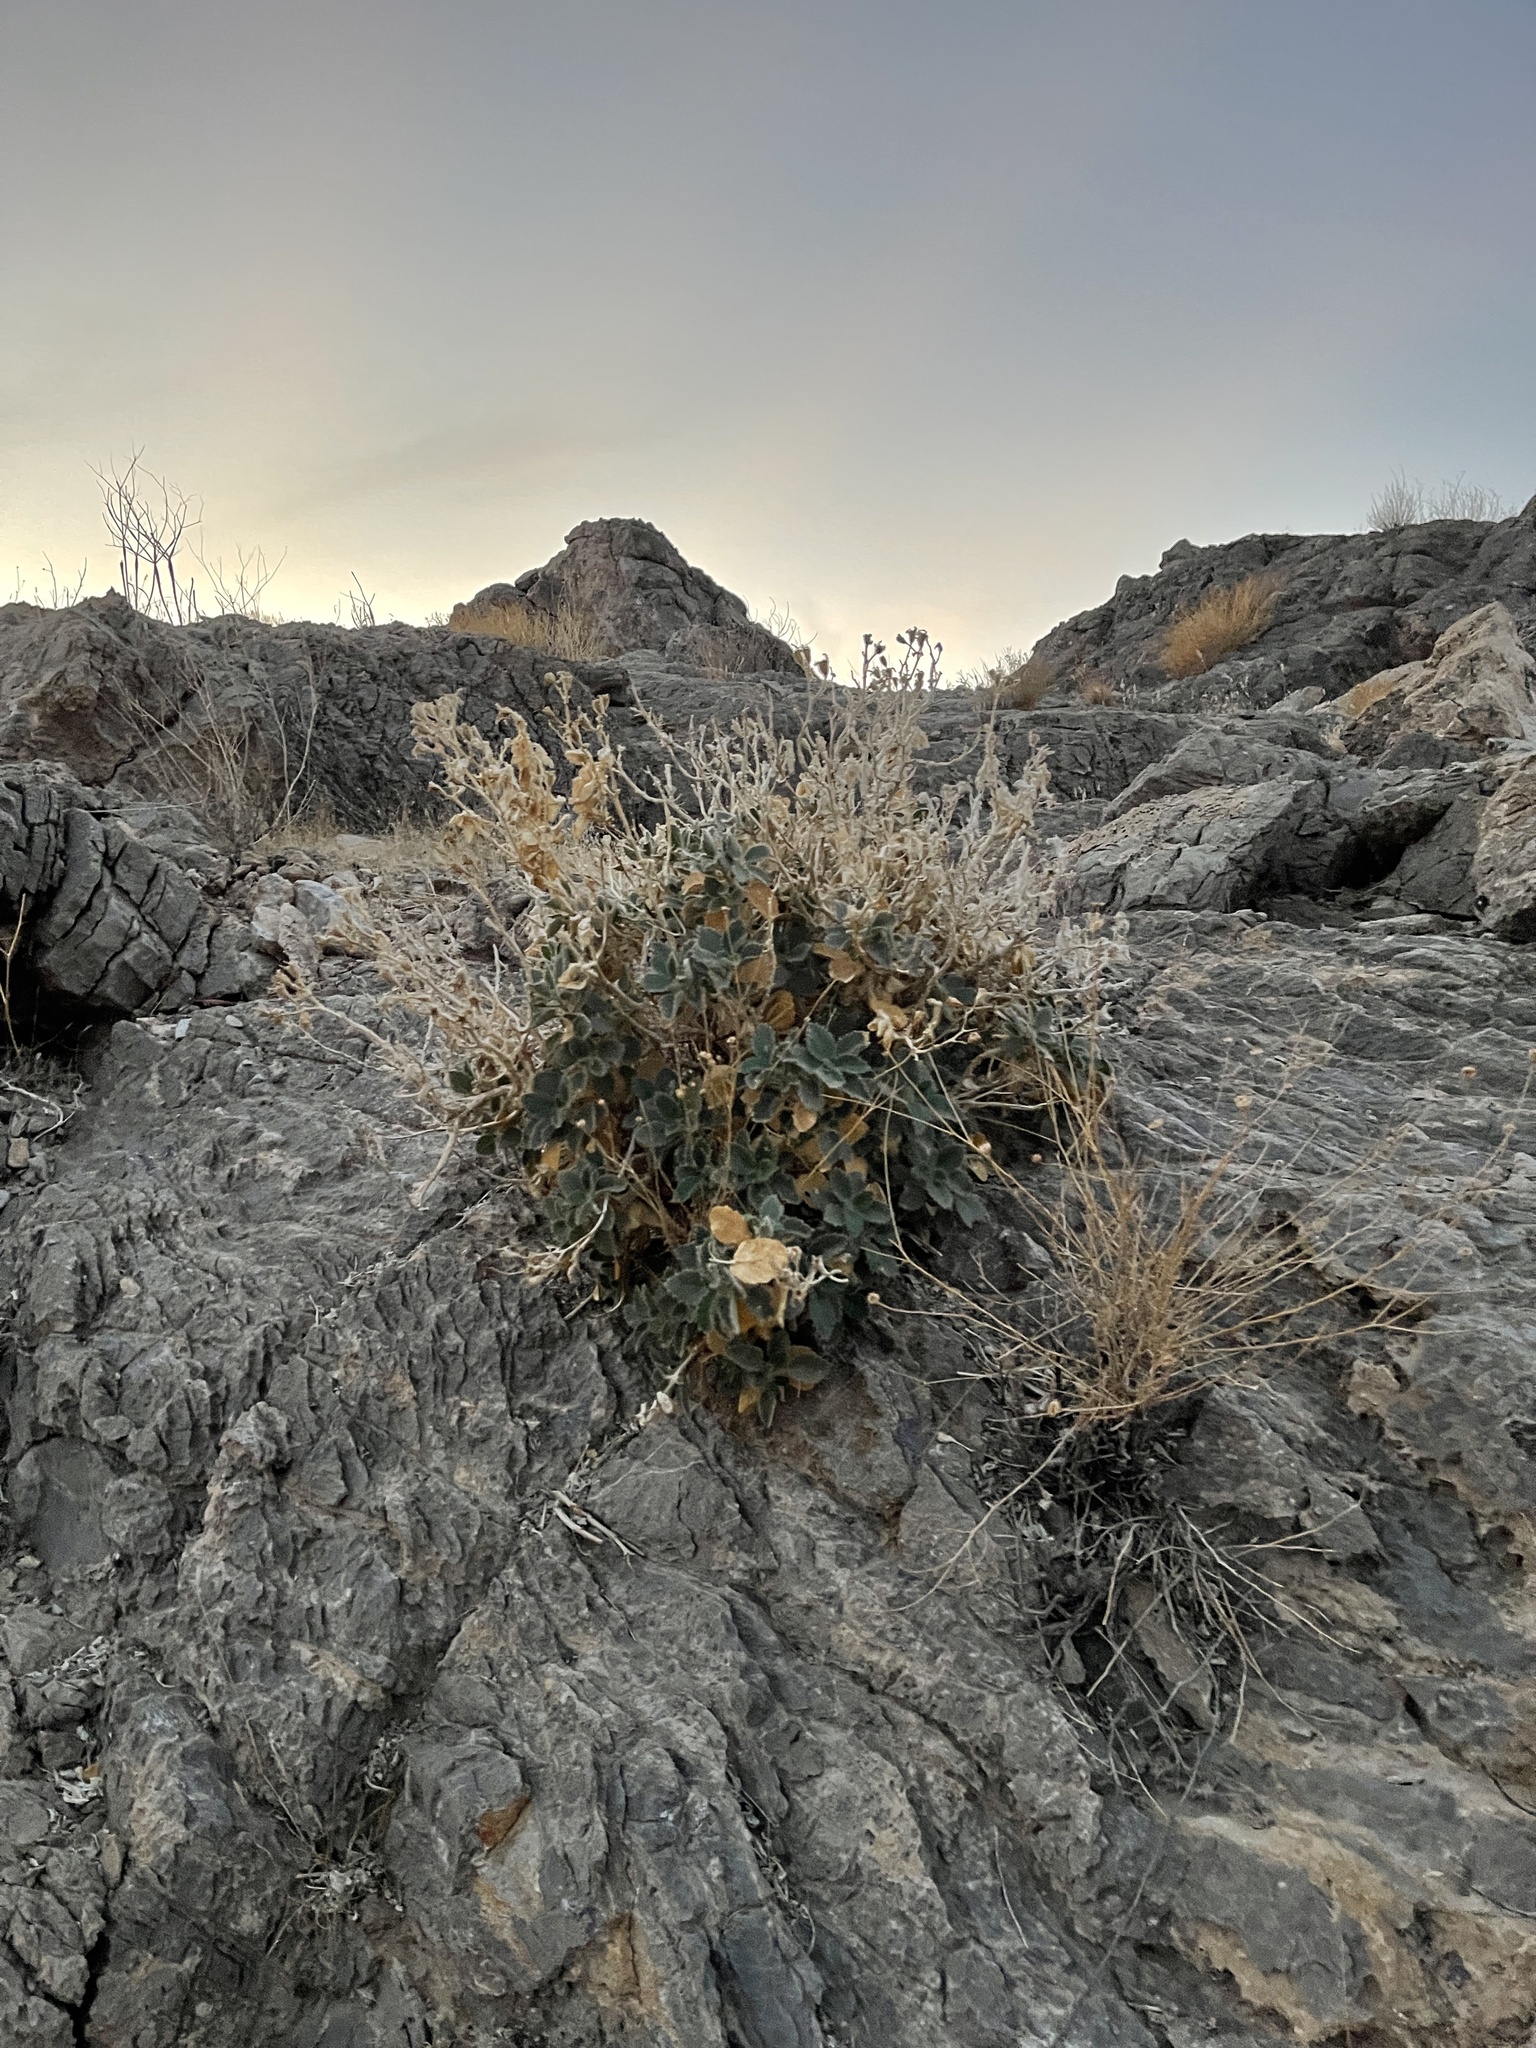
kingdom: Plantae
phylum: Tracheophyta
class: Magnoliopsida
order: Cornales
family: Loasaceae
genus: Eucnide
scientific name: Eucnide urens
